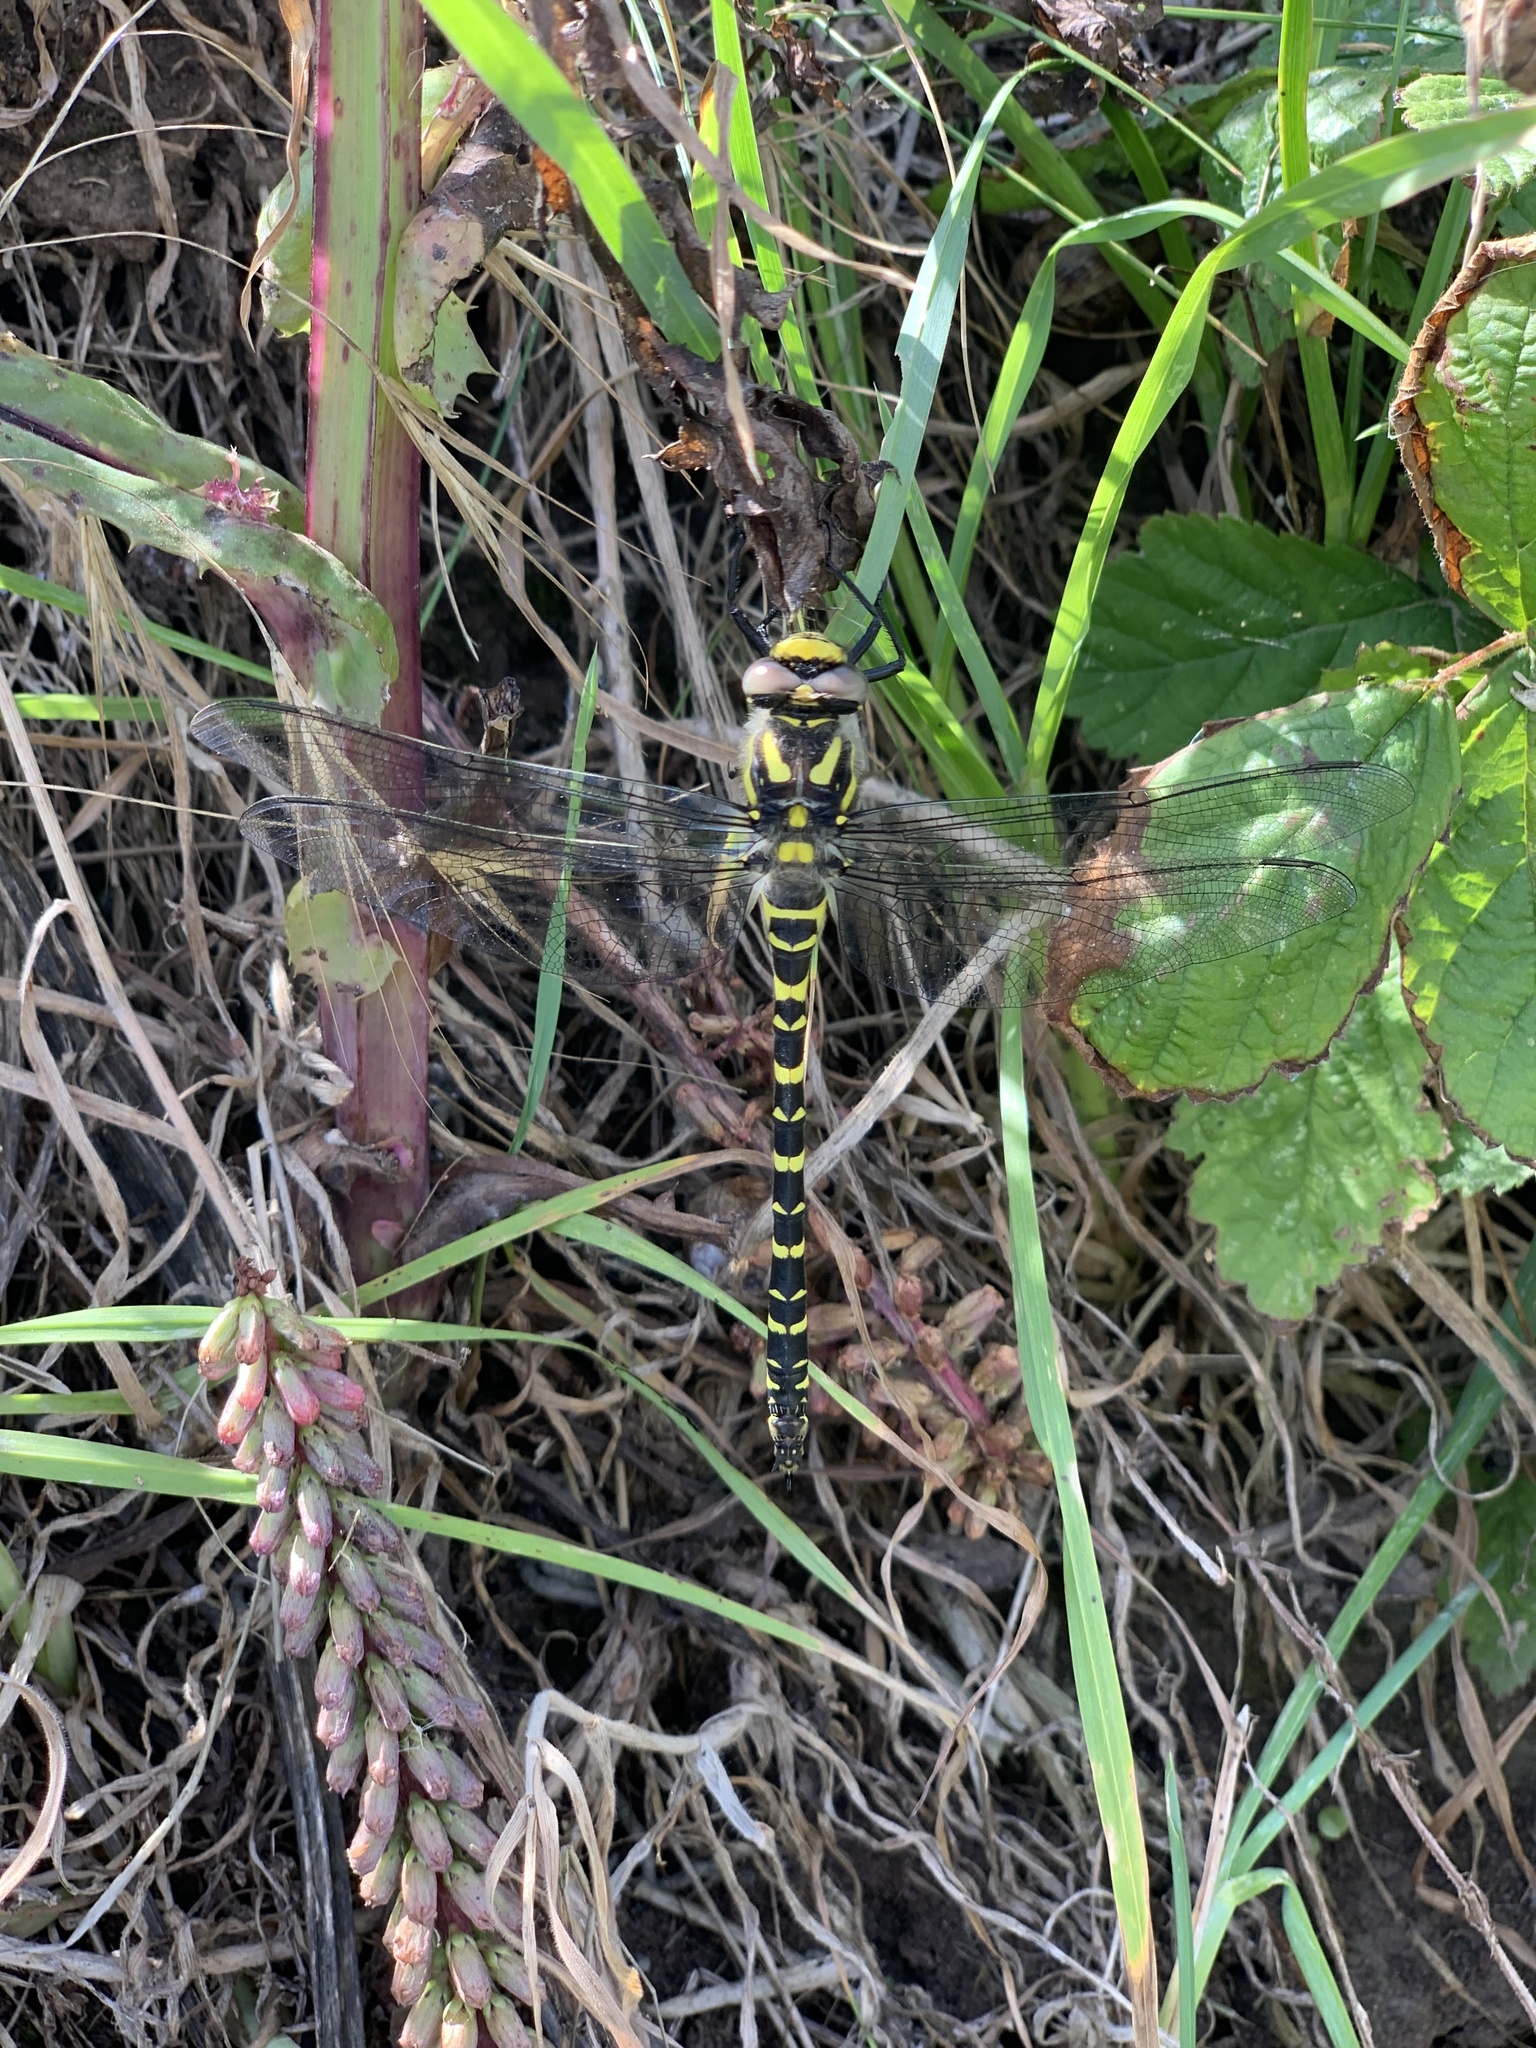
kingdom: Animalia
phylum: Arthropoda
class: Insecta
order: Odonata
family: Cordulegastridae
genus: Cordulegaster
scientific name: Cordulegaster boltonii
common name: Golden-ringed dragonfly
